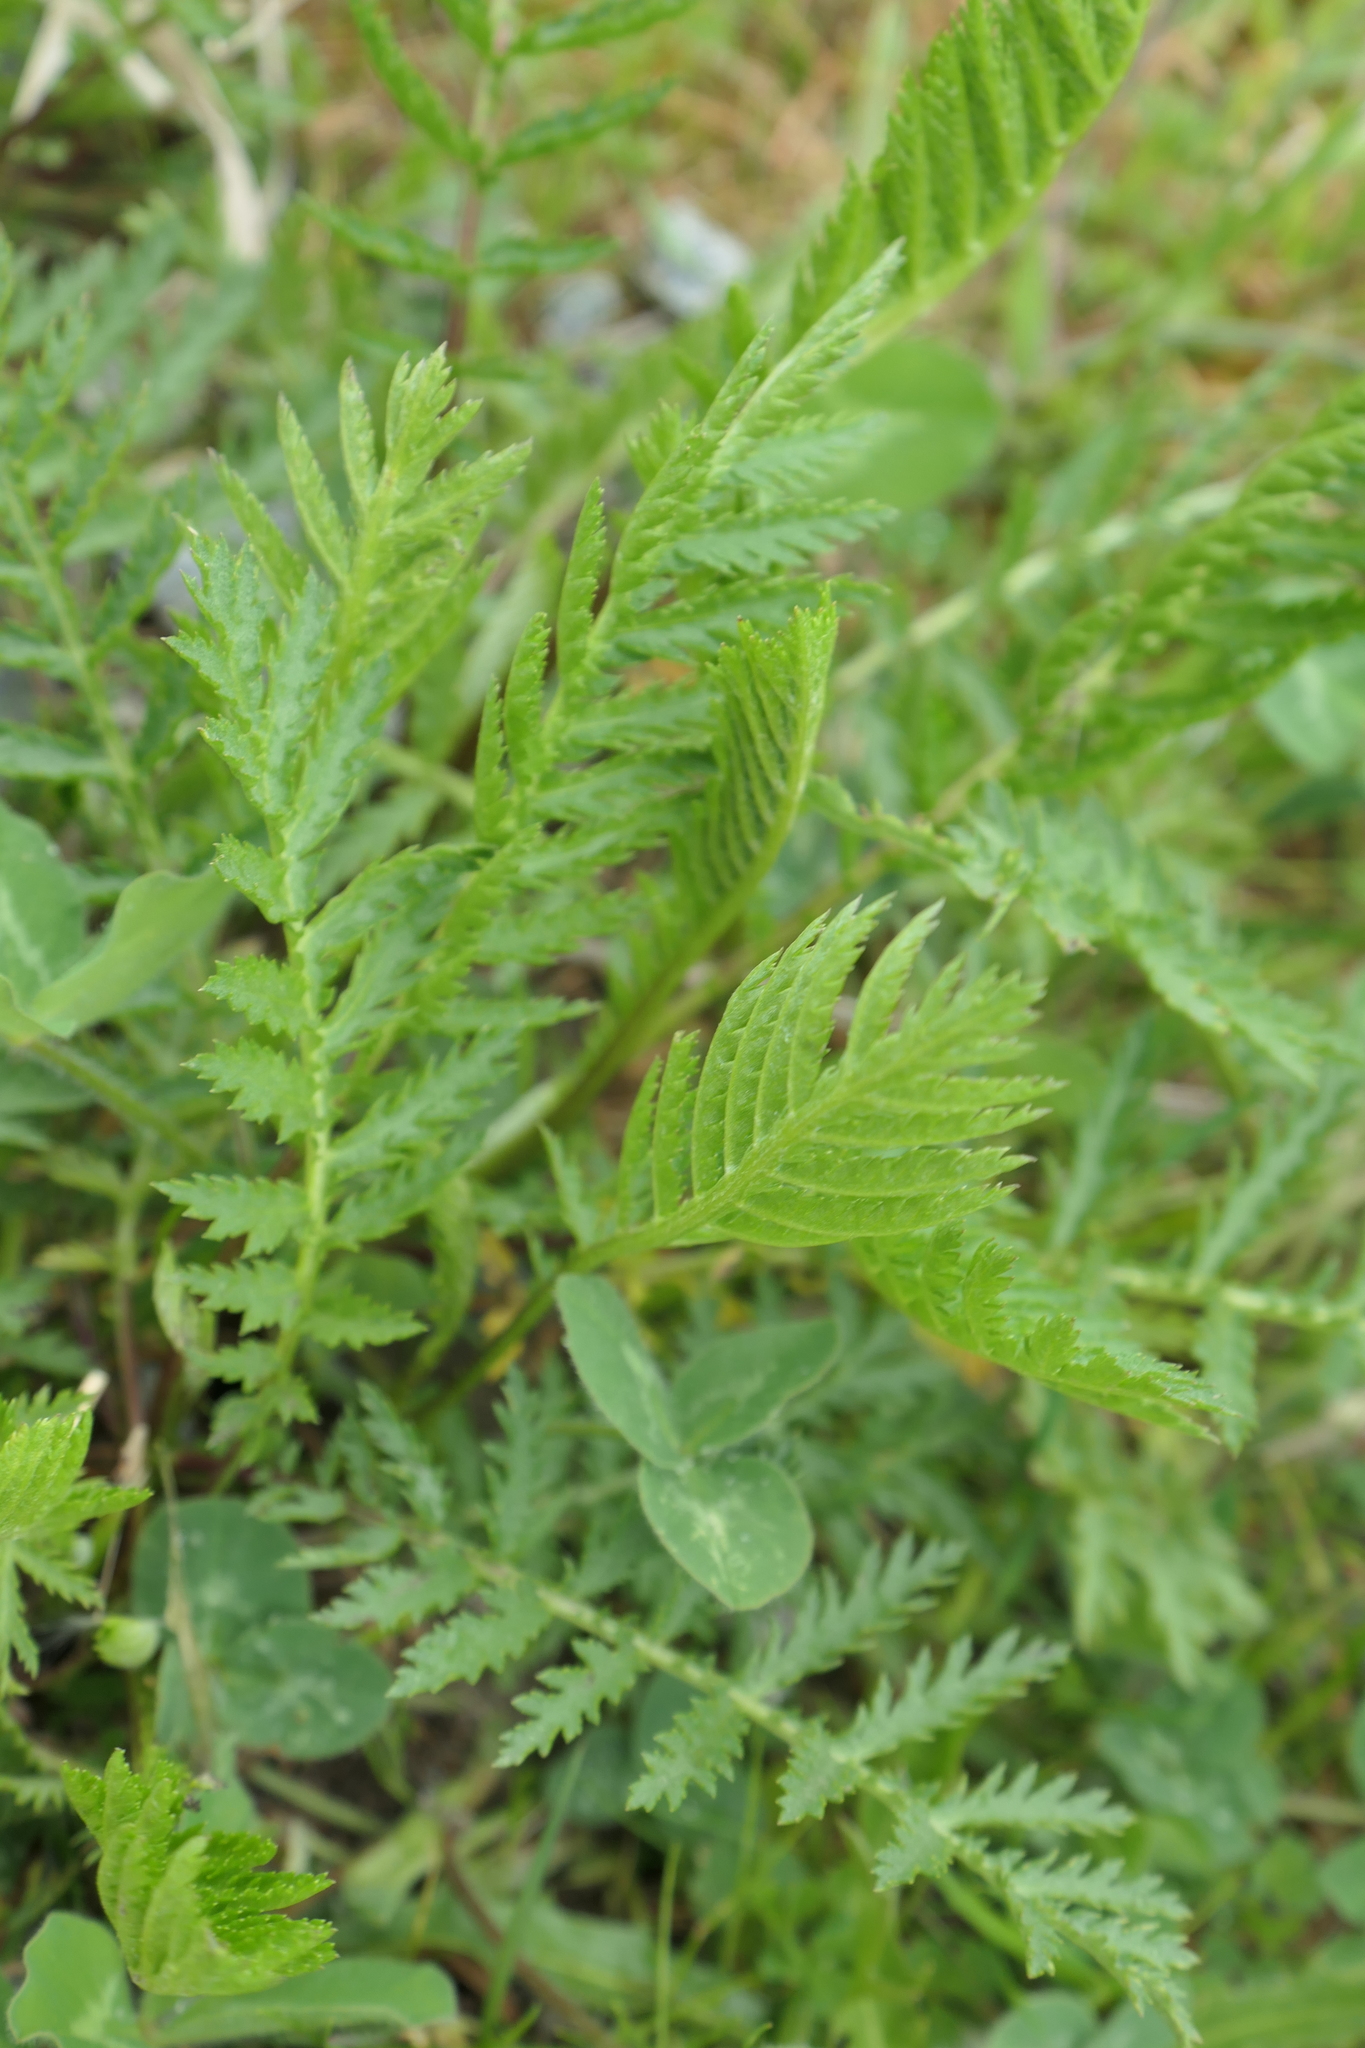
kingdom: Plantae
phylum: Tracheophyta
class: Magnoliopsida
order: Asterales
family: Asteraceae
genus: Tanacetum
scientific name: Tanacetum vulgare
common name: Common tansy
